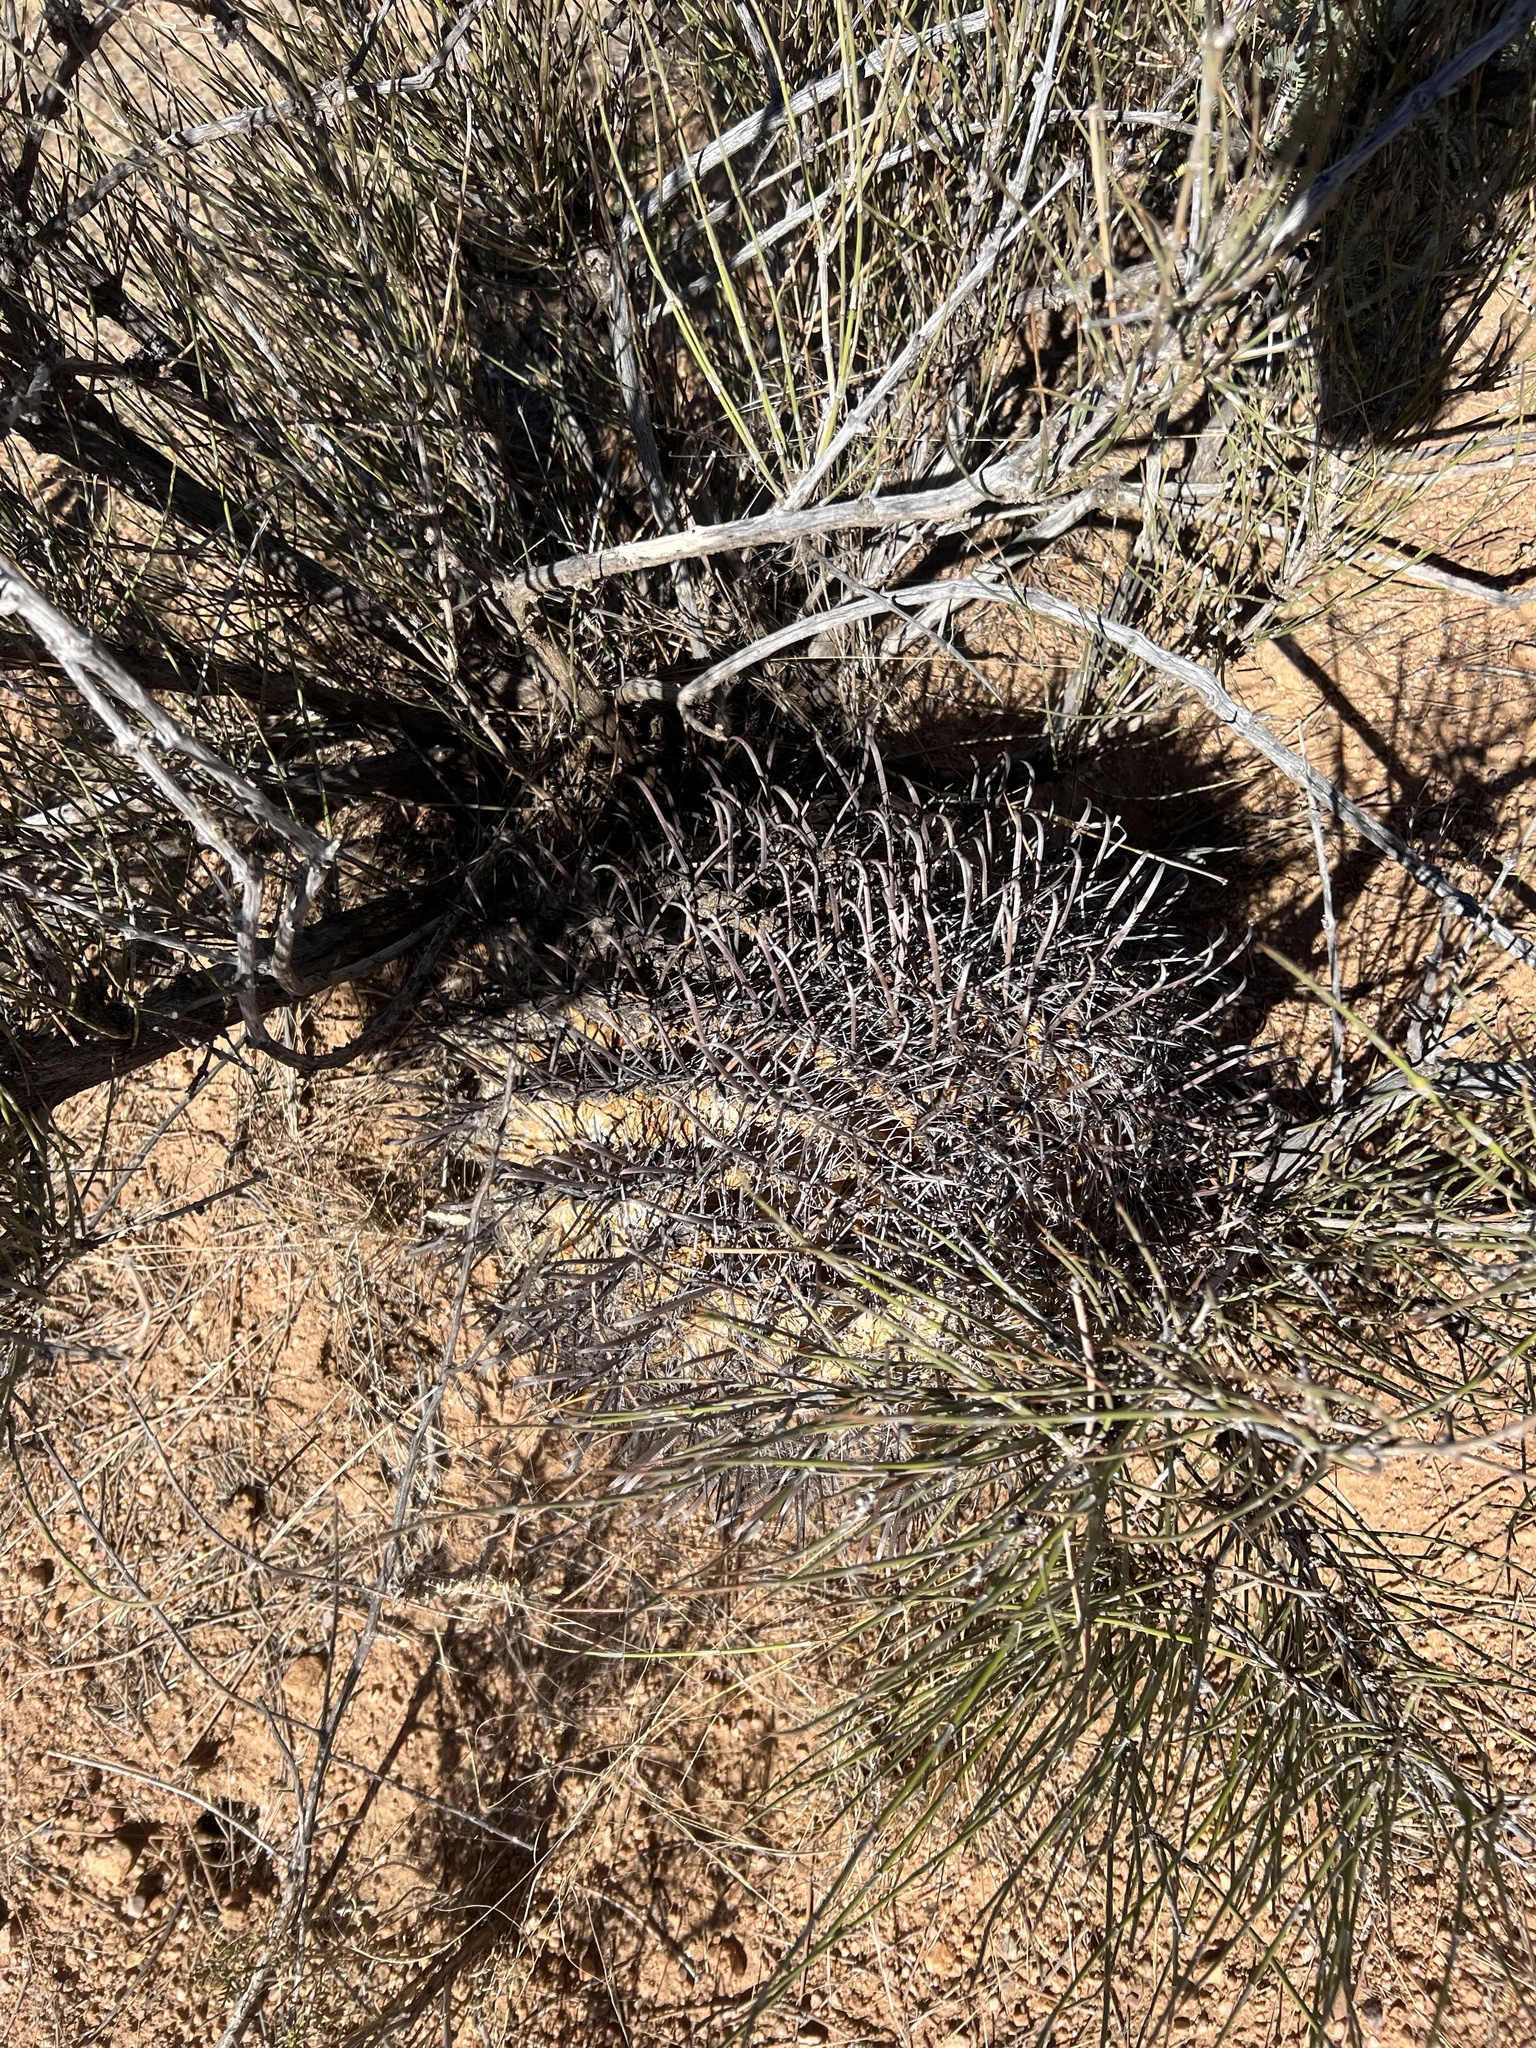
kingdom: Plantae
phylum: Tracheophyta
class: Magnoliopsida
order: Caryophyllales
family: Cactaceae
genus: Ferocactus
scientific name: Ferocactus wislizeni
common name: Candy barrel cactus
